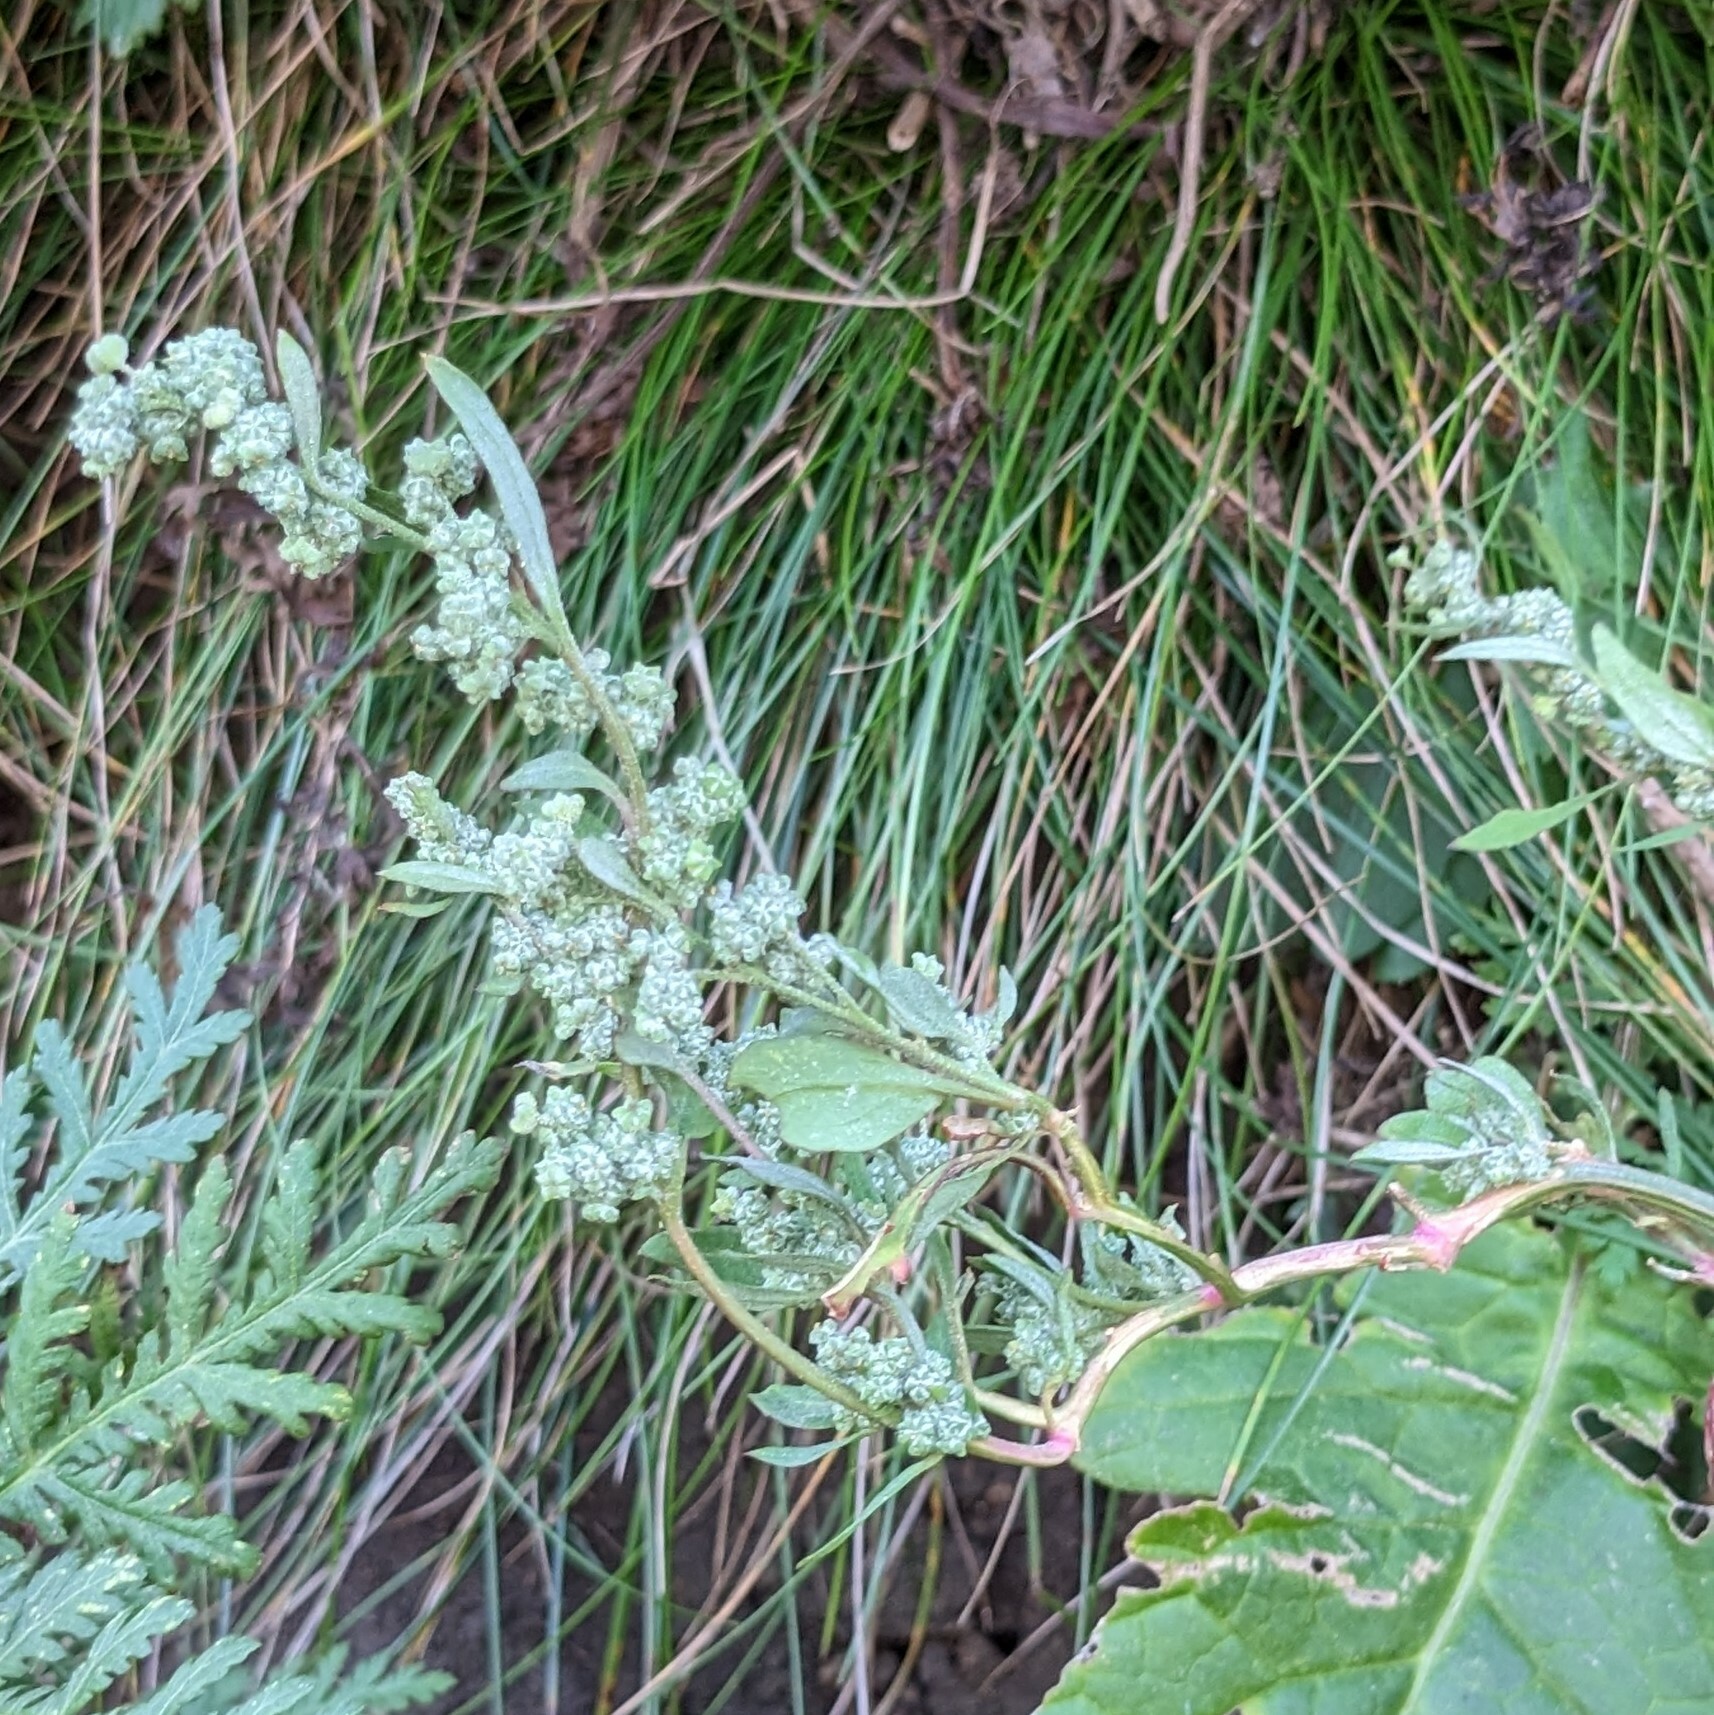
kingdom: Plantae
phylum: Tracheophyta
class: Magnoliopsida
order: Caryophyllales
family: Amaranthaceae
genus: Chenopodium
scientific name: Chenopodium album
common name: Fat-hen
